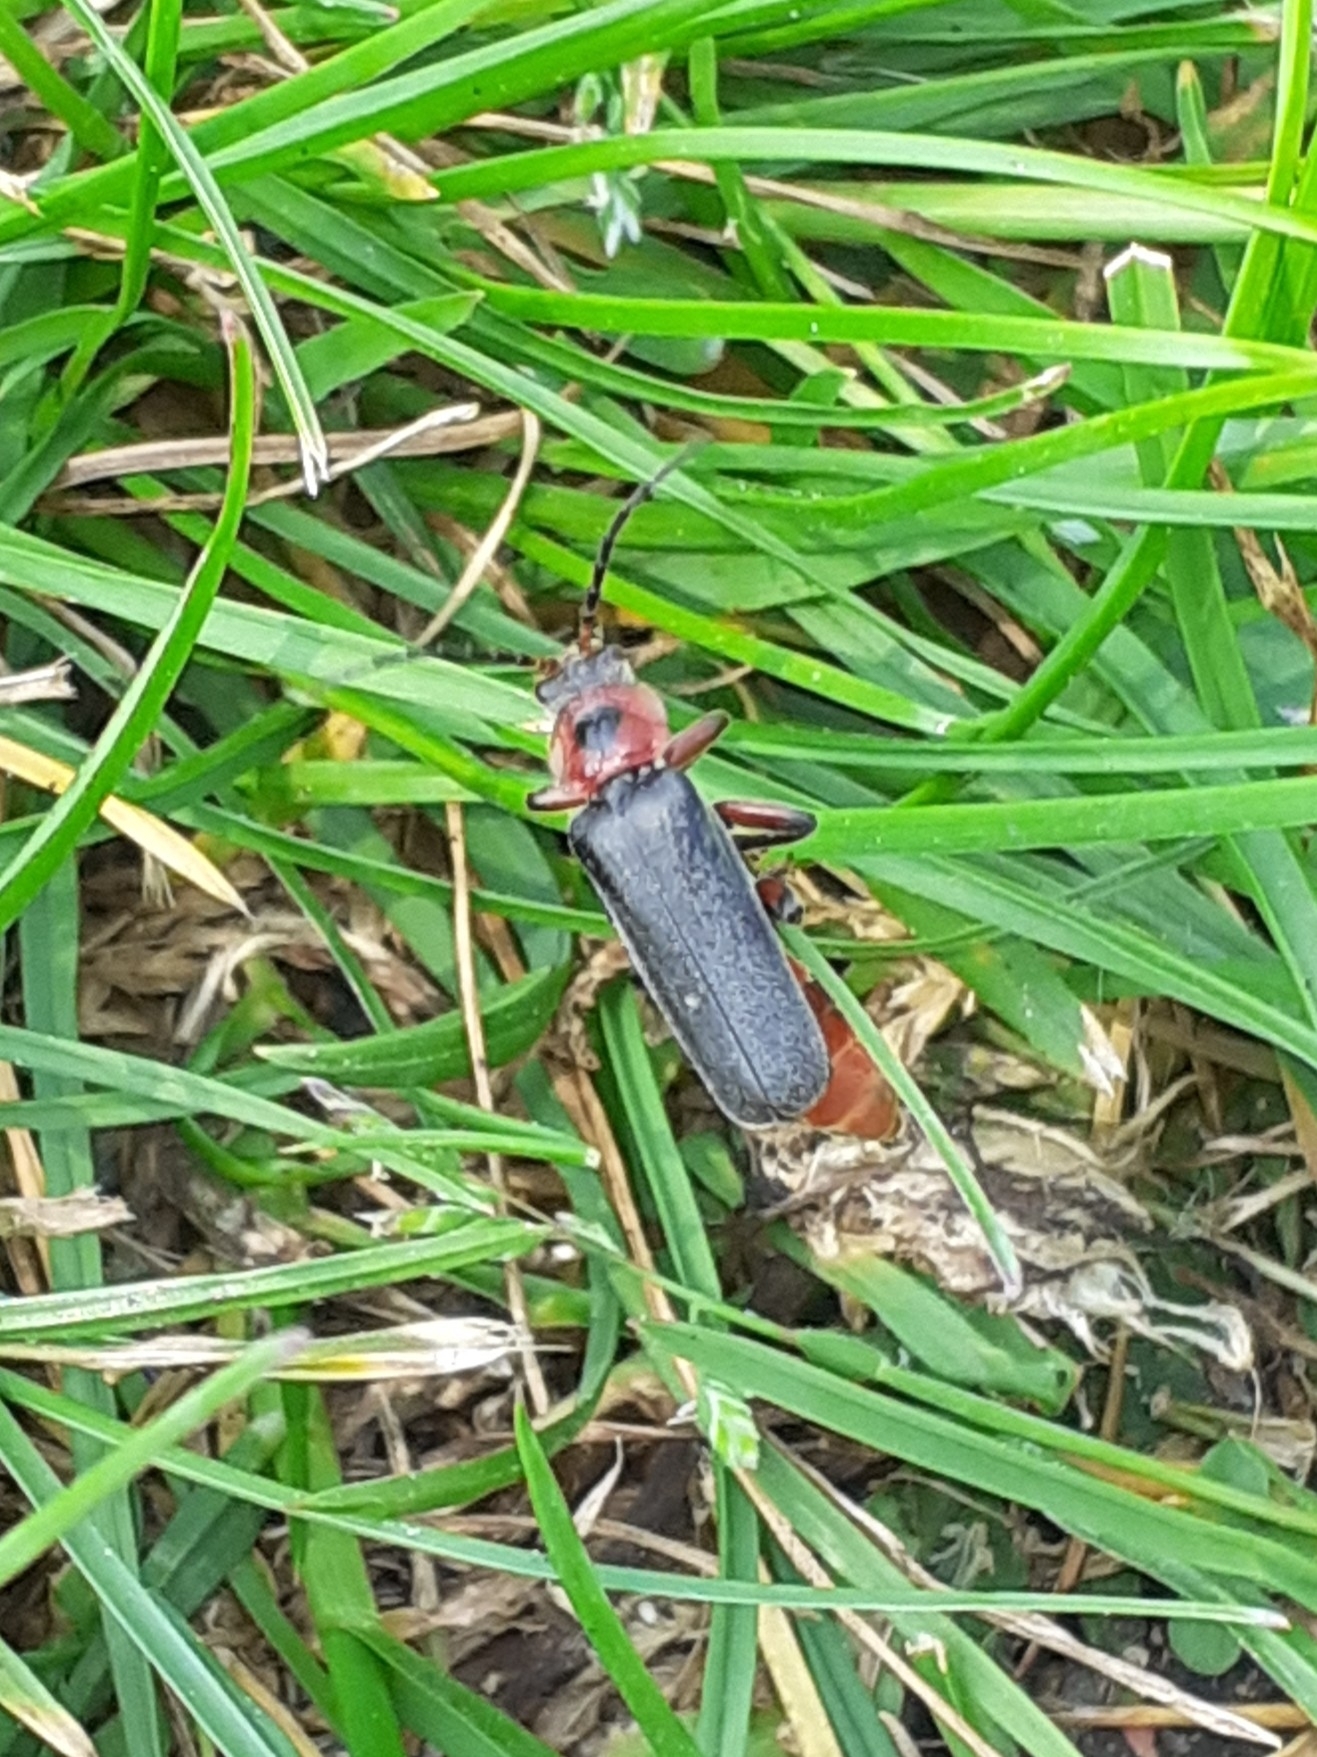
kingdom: Animalia
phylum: Arthropoda
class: Insecta
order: Coleoptera
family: Cantharidae
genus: Cantharis
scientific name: Cantharis rustica
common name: Soldier beetle
